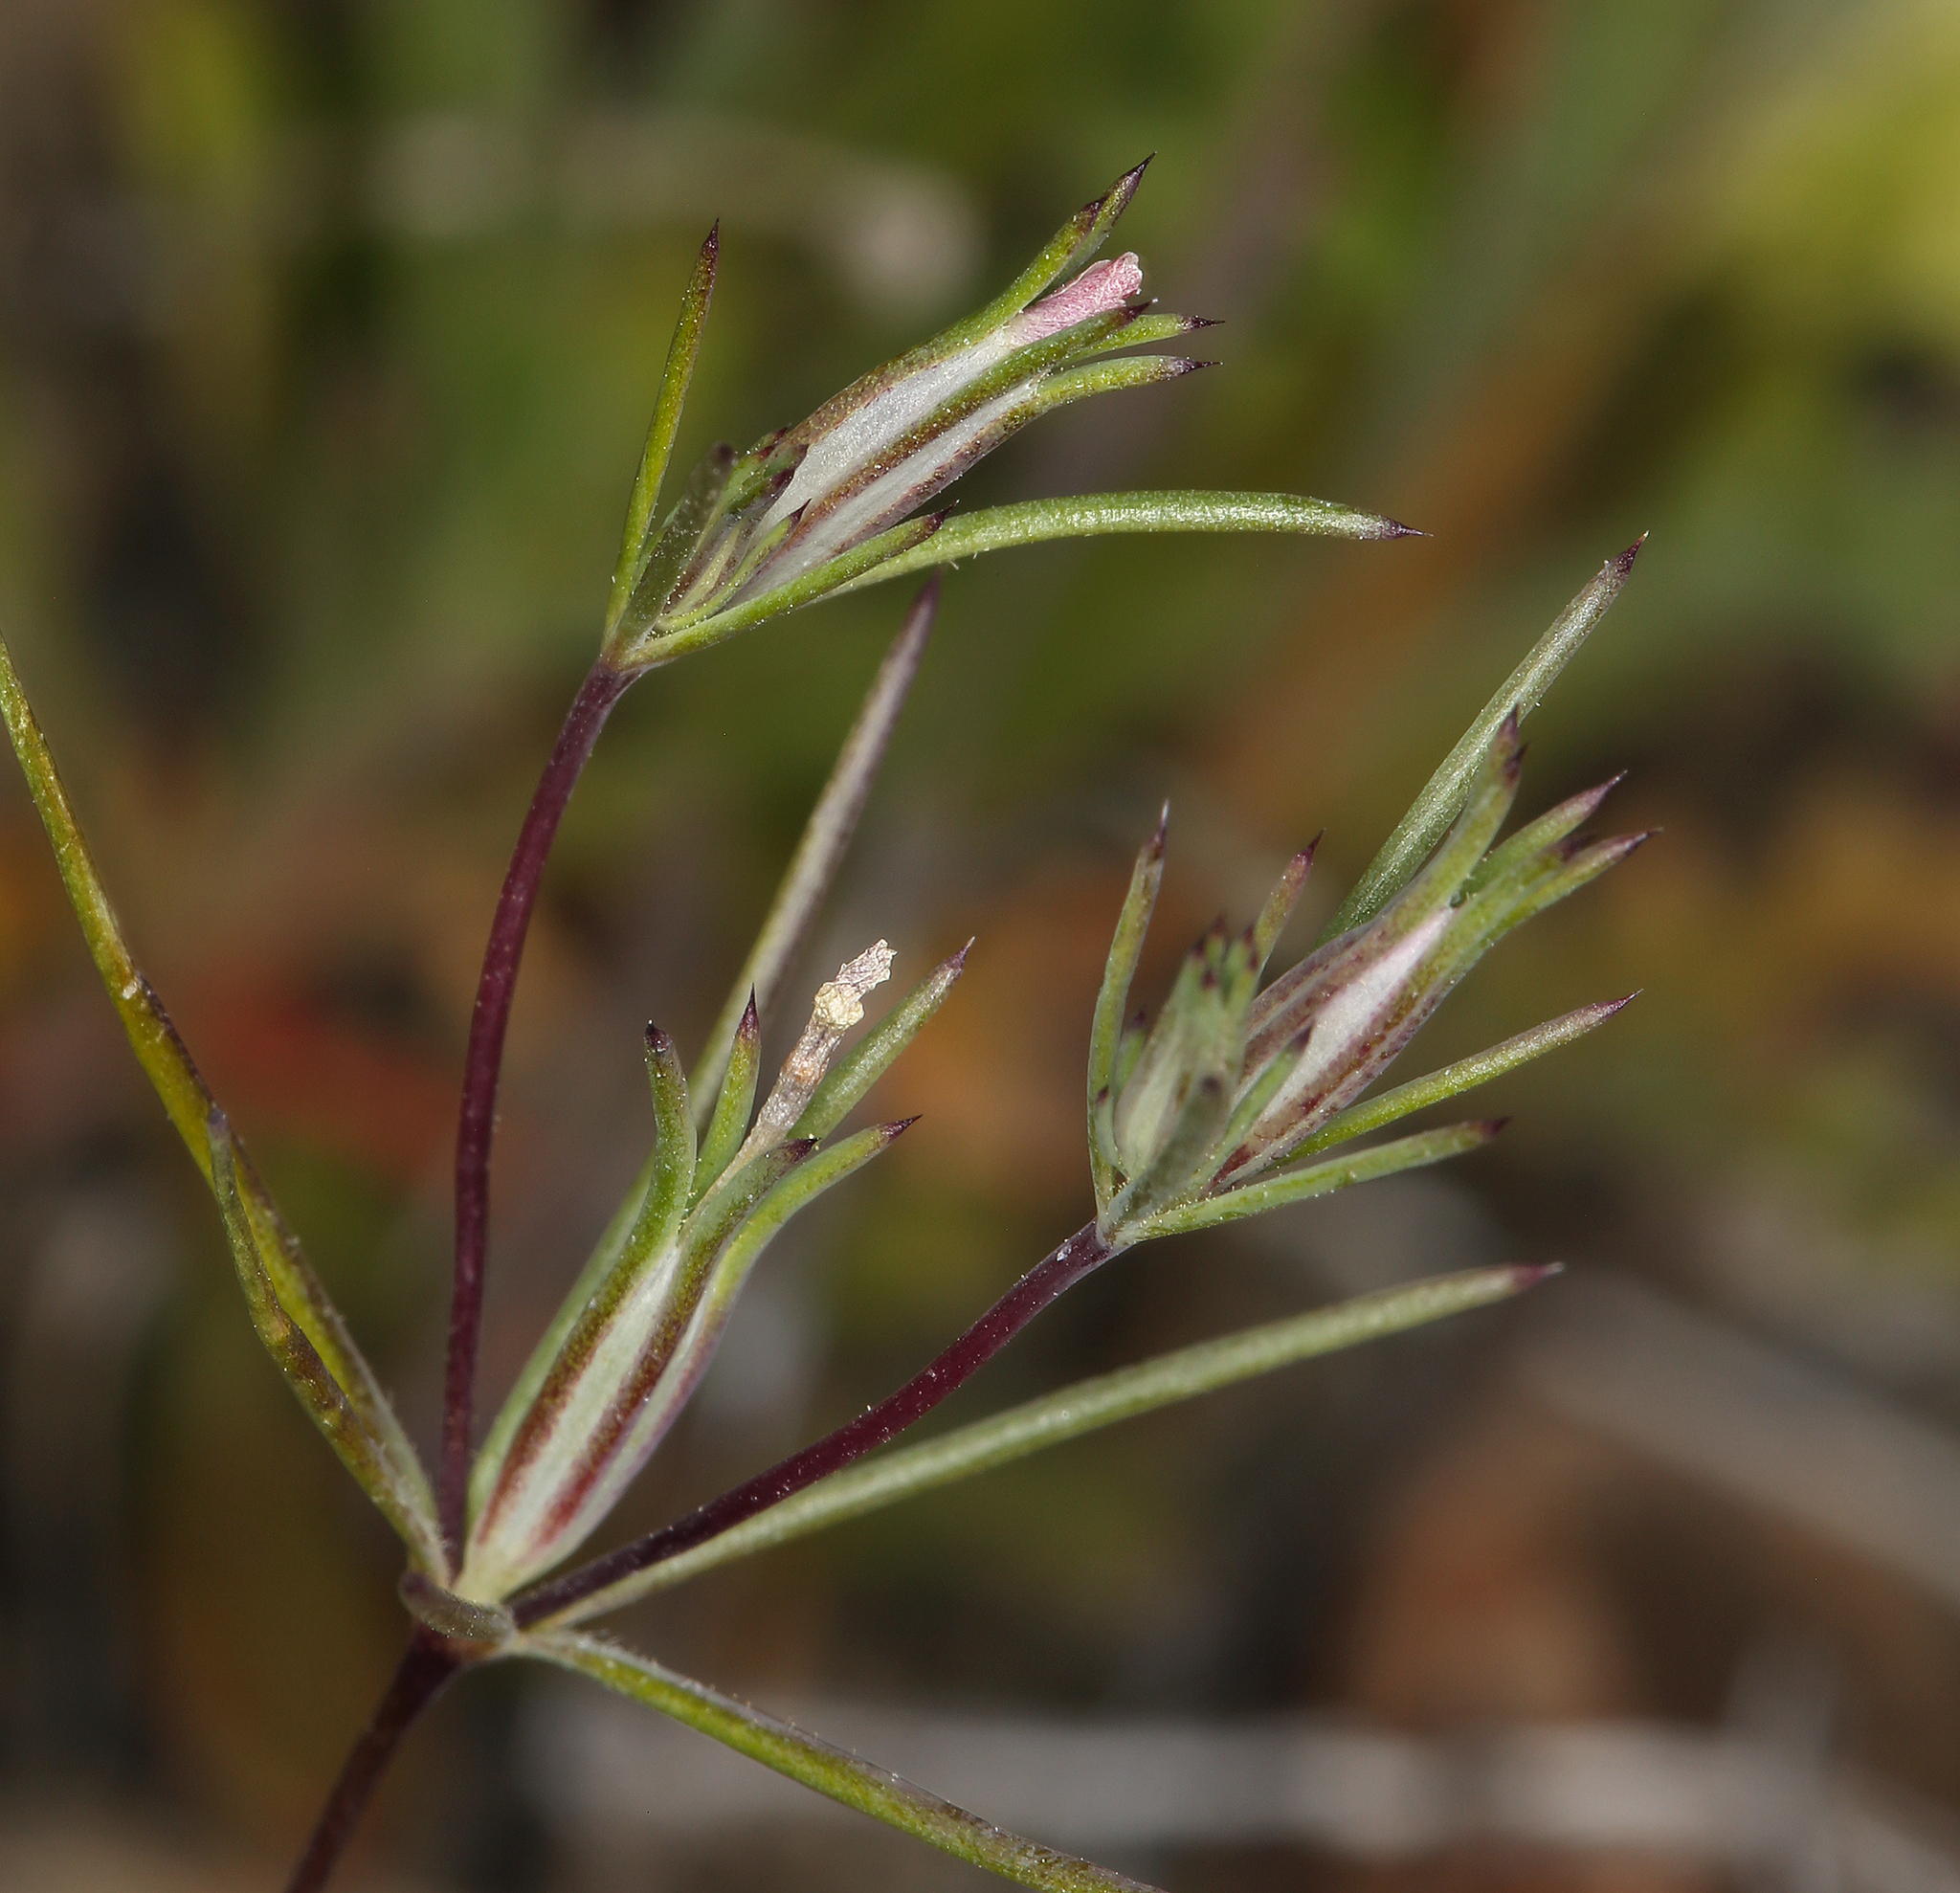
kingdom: Plantae
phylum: Tracheophyta
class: Magnoliopsida
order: Ericales
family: Polemoniaceae
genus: Linanthus
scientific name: Linanthus bigelovii
